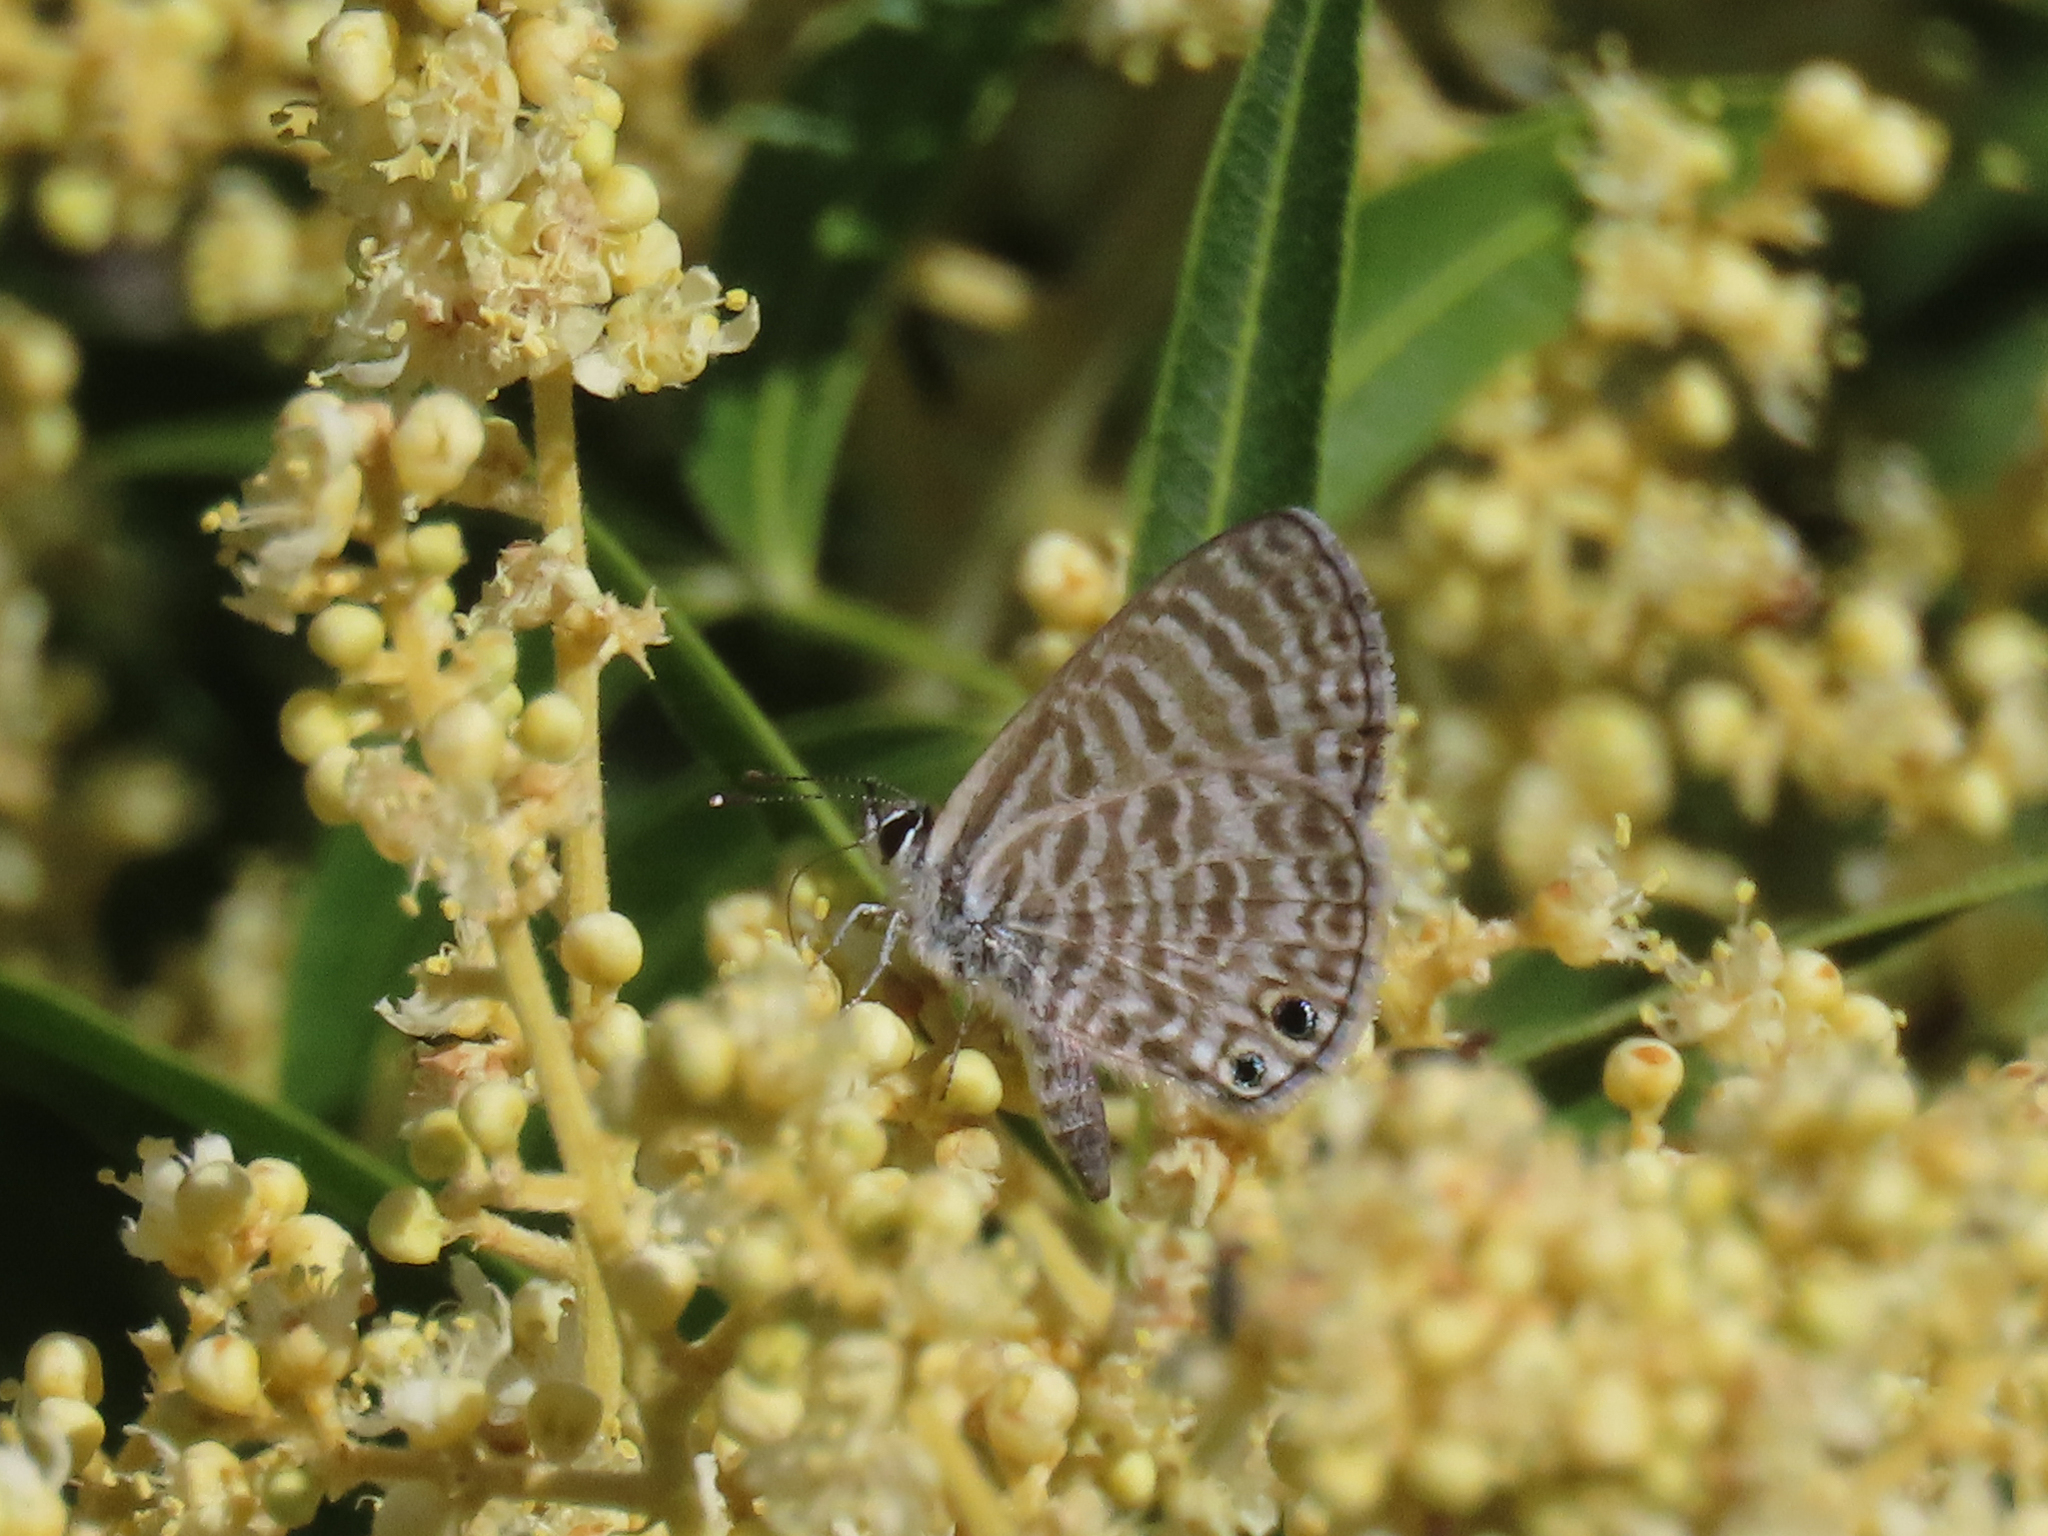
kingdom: Animalia
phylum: Arthropoda
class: Insecta
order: Lepidoptera
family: Lycaenidae
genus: Leptotes
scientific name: Leptotes marina
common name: Marine blue
